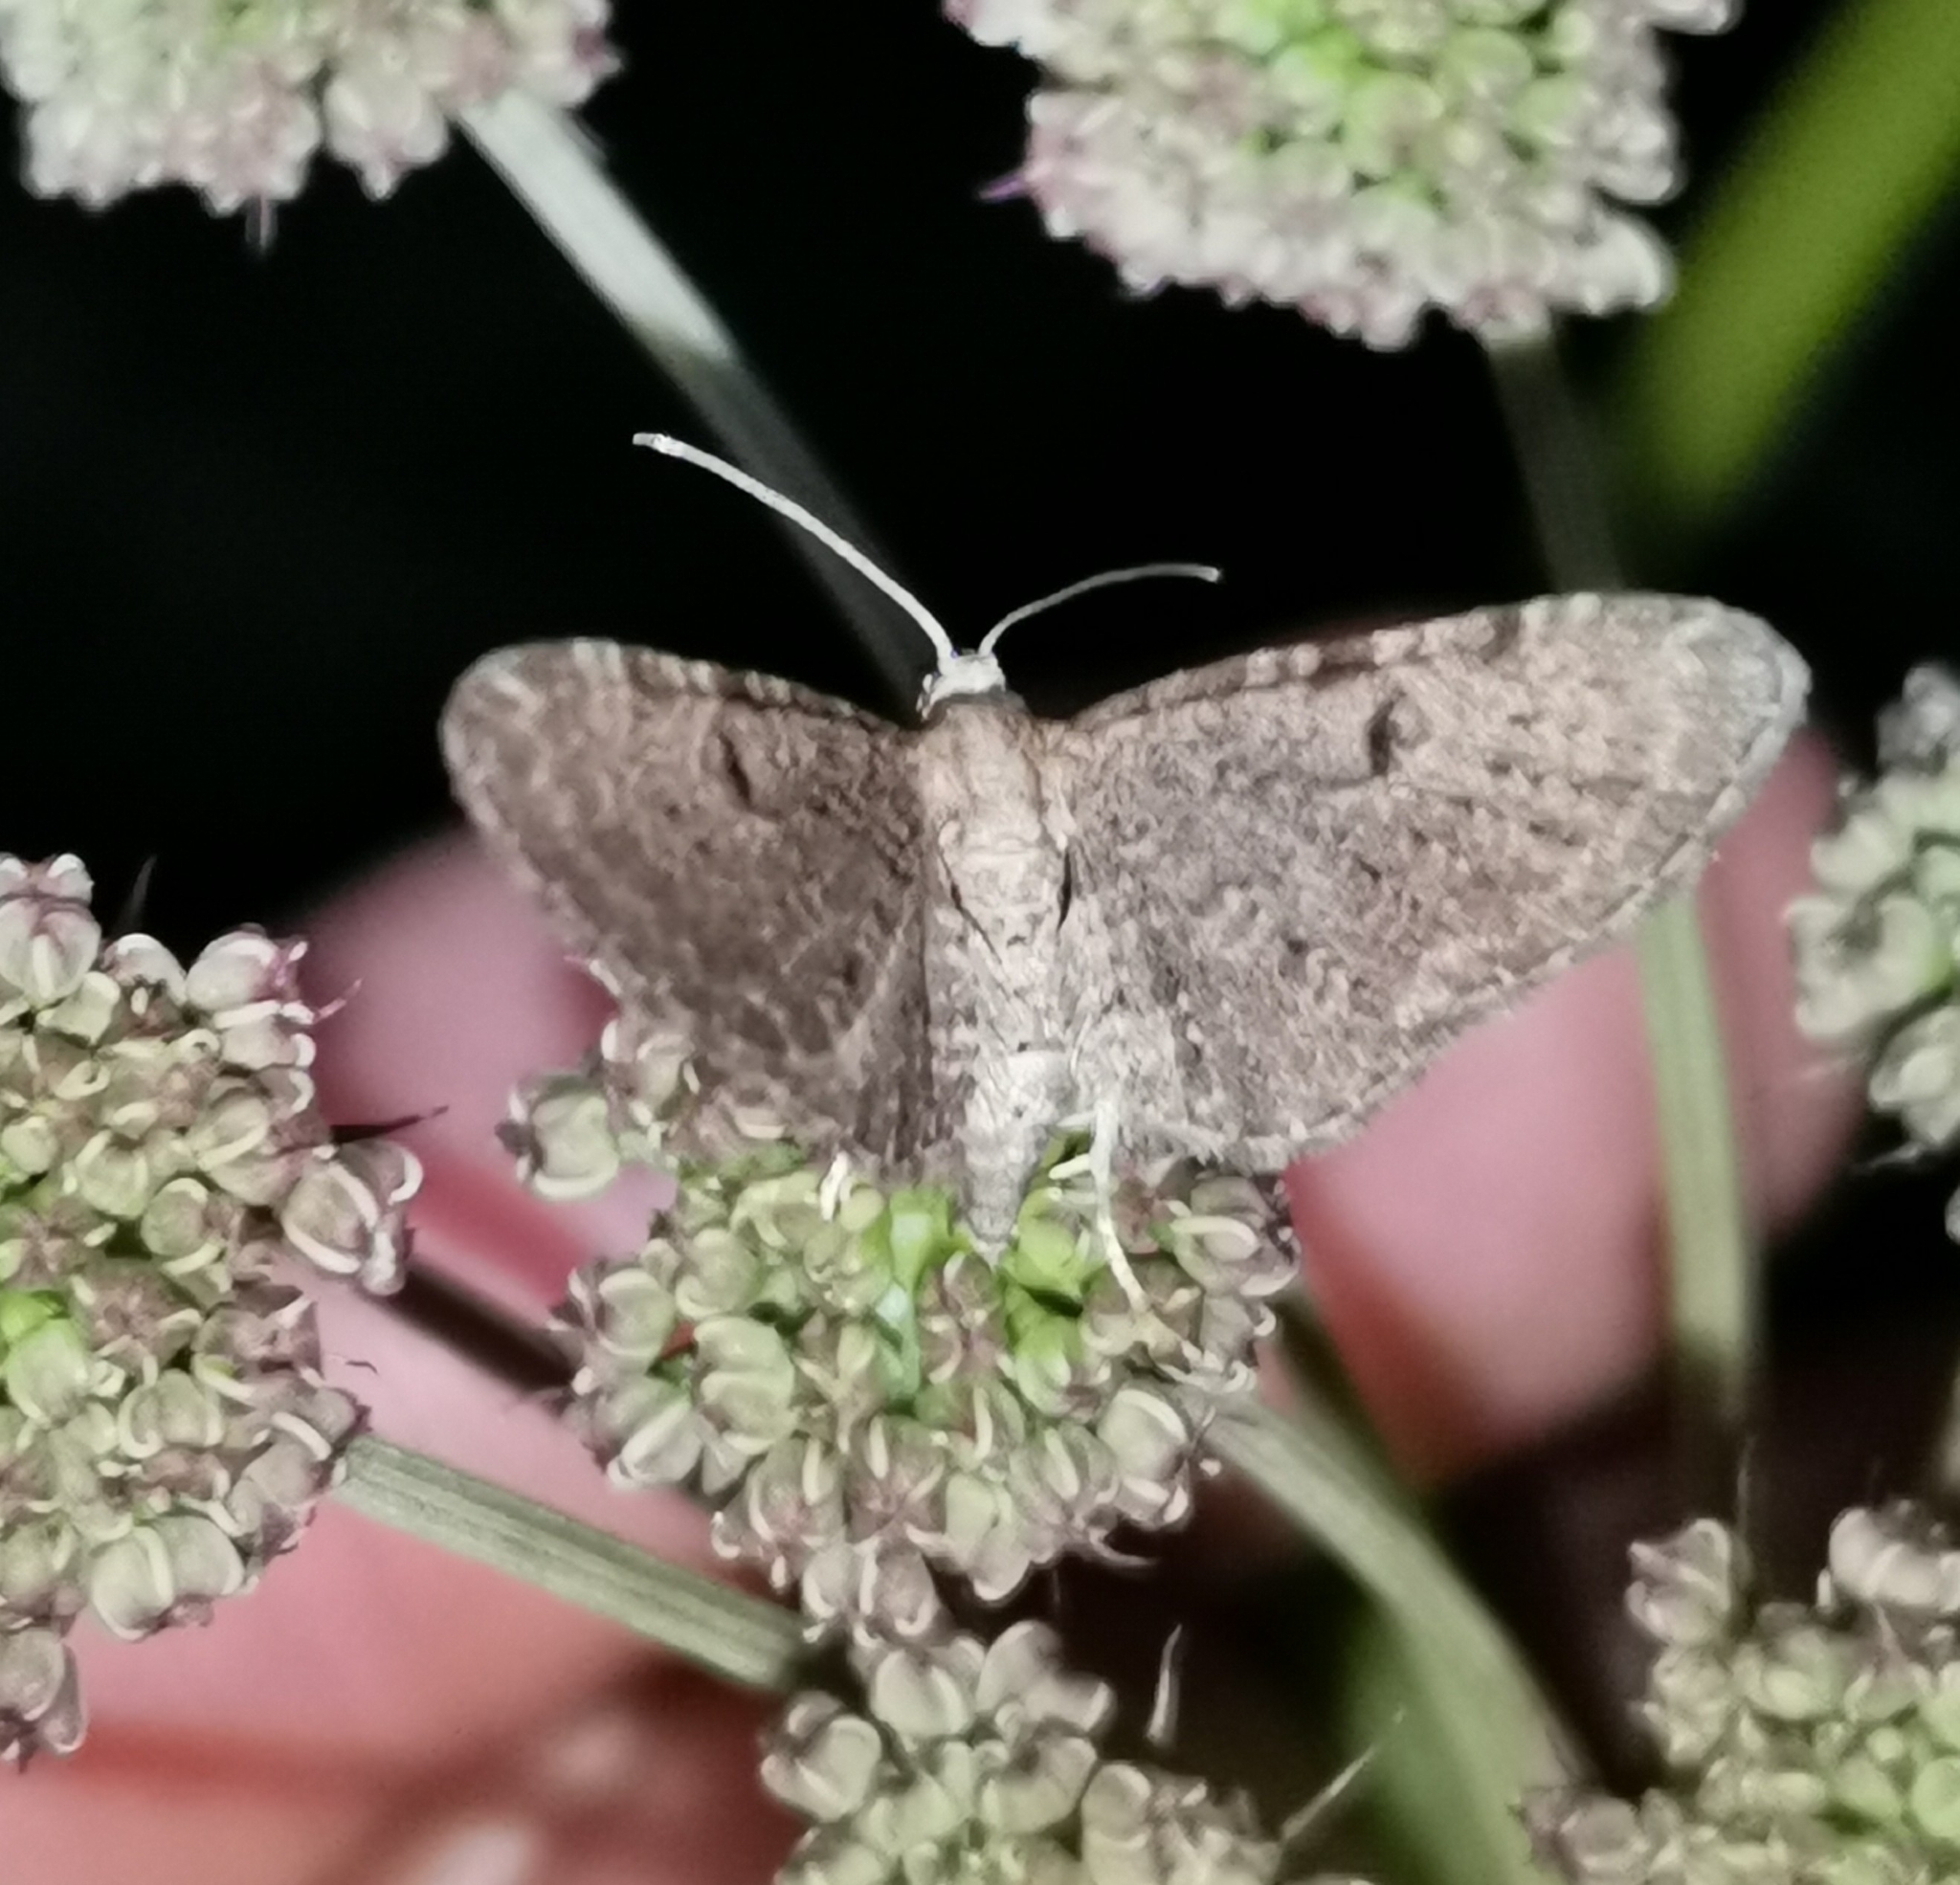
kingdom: Animalia
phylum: Arthropoda
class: Insecta
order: Lepidoptera
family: Geometridae
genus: Eupithecia
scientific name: Eupithecia trisignaria
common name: Triple-spotted pug
